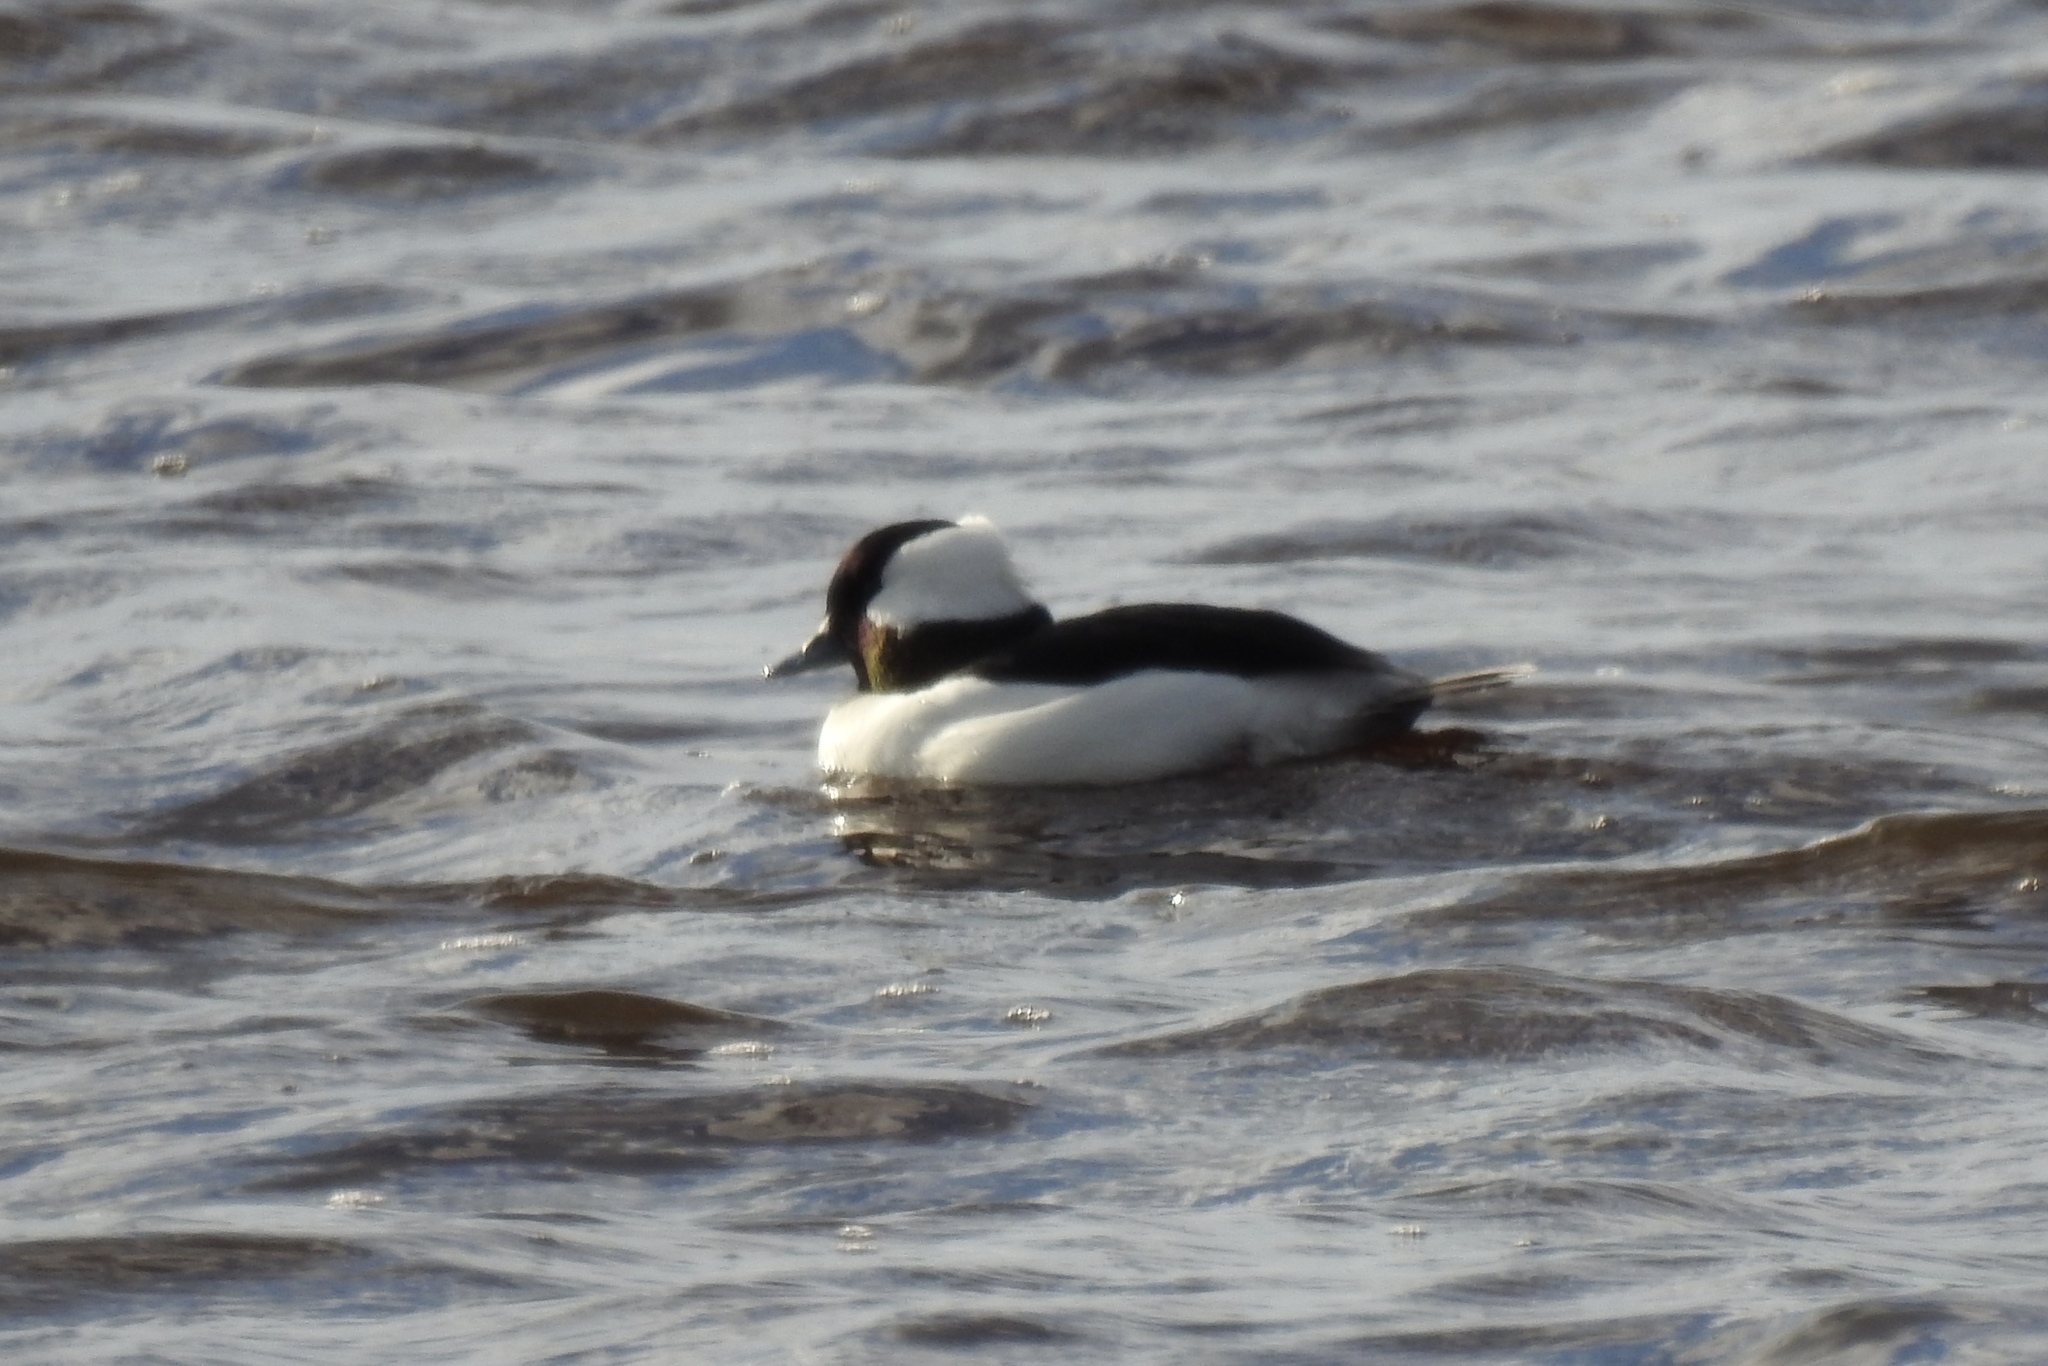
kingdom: Animalia
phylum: Chordata
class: Aves
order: Anseriformes
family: Anatidae
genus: Bucephala
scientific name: Bucephala albeola
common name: Bufflehead
